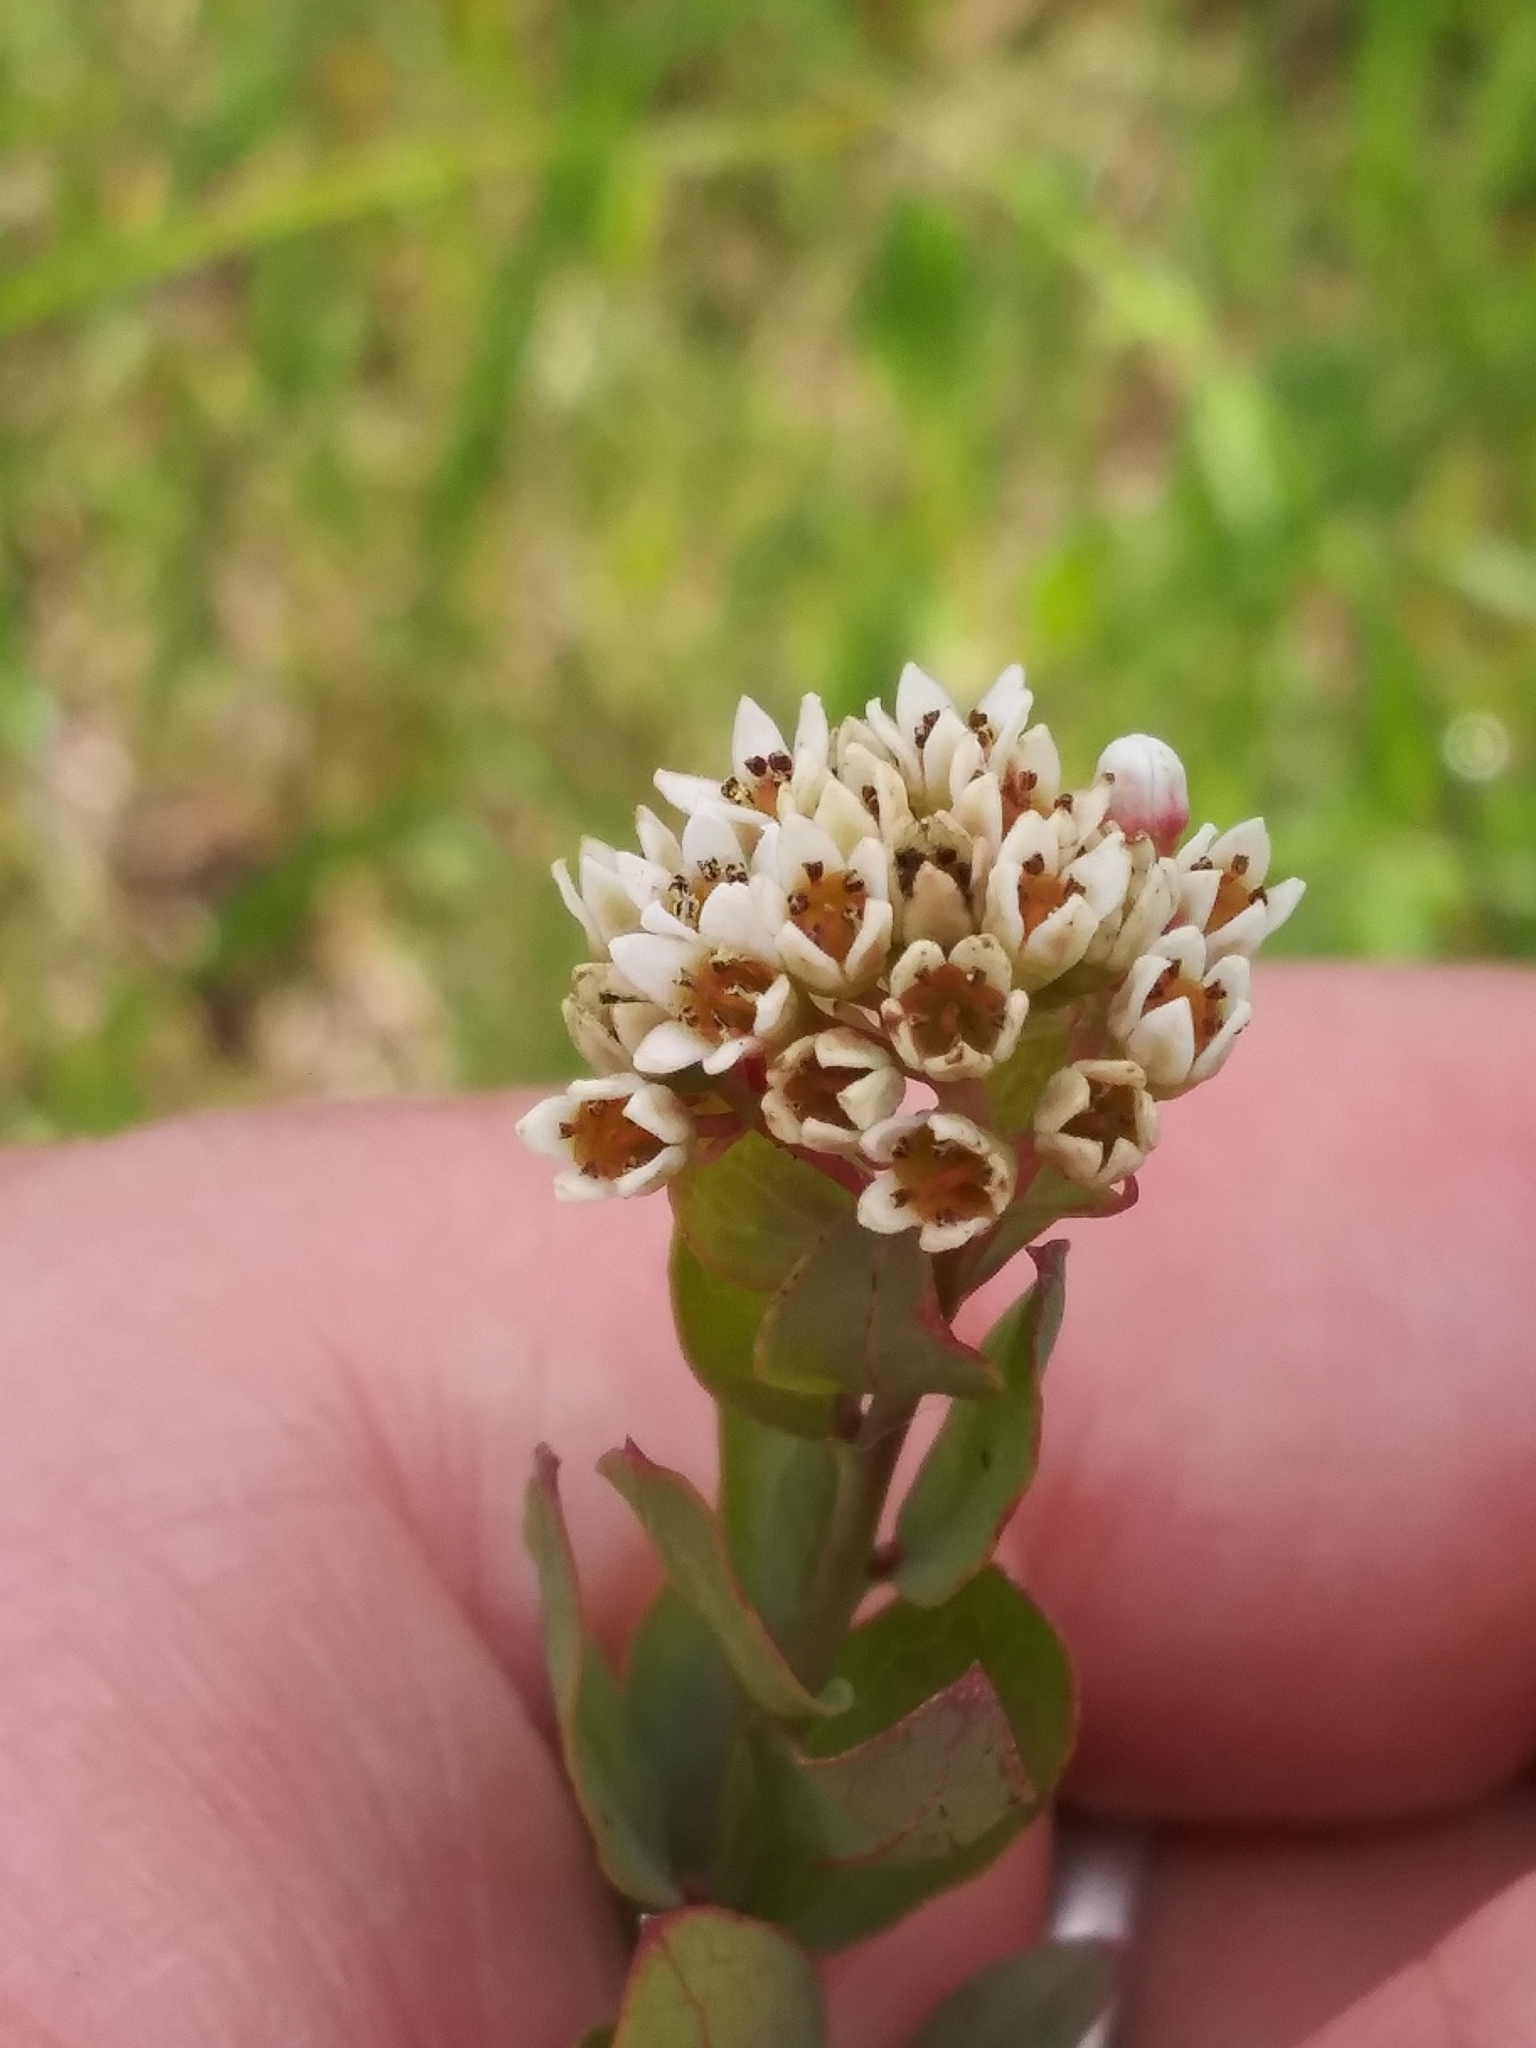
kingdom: Plantae
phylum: Tracheophyta
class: Magnoliopsida
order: Santalales
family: Comandraceae
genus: Comandra
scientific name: Comandra umbellata
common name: Bastard toadflax
